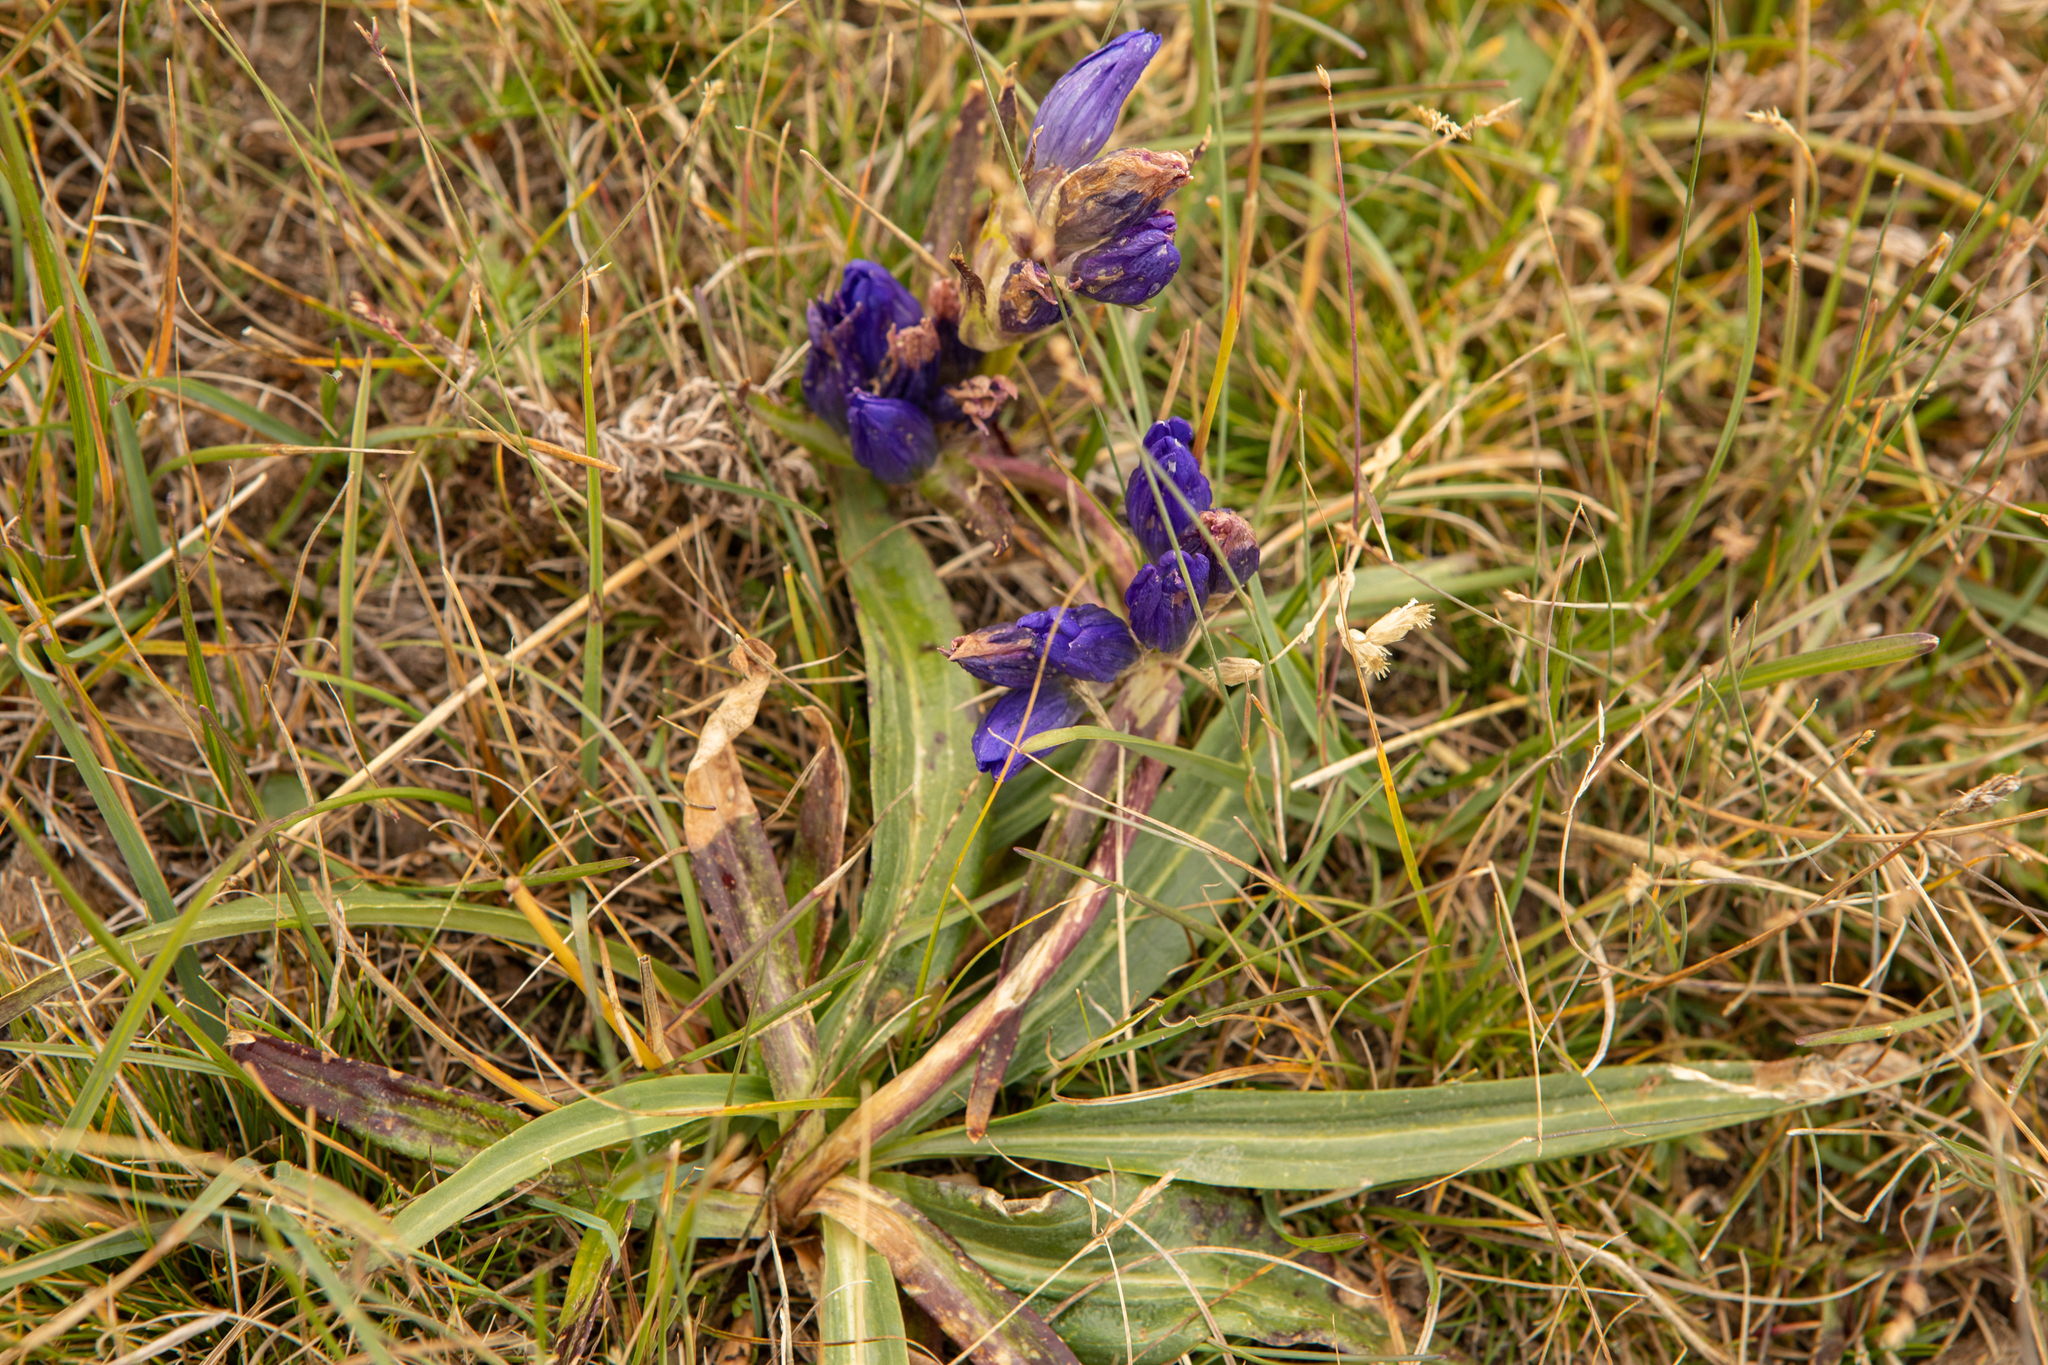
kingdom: Plantae
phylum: Tracheophyta
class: Magnoliopsida
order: Gentianales
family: Gentianaceae
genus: Gentiana
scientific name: Gentiana decumbens
